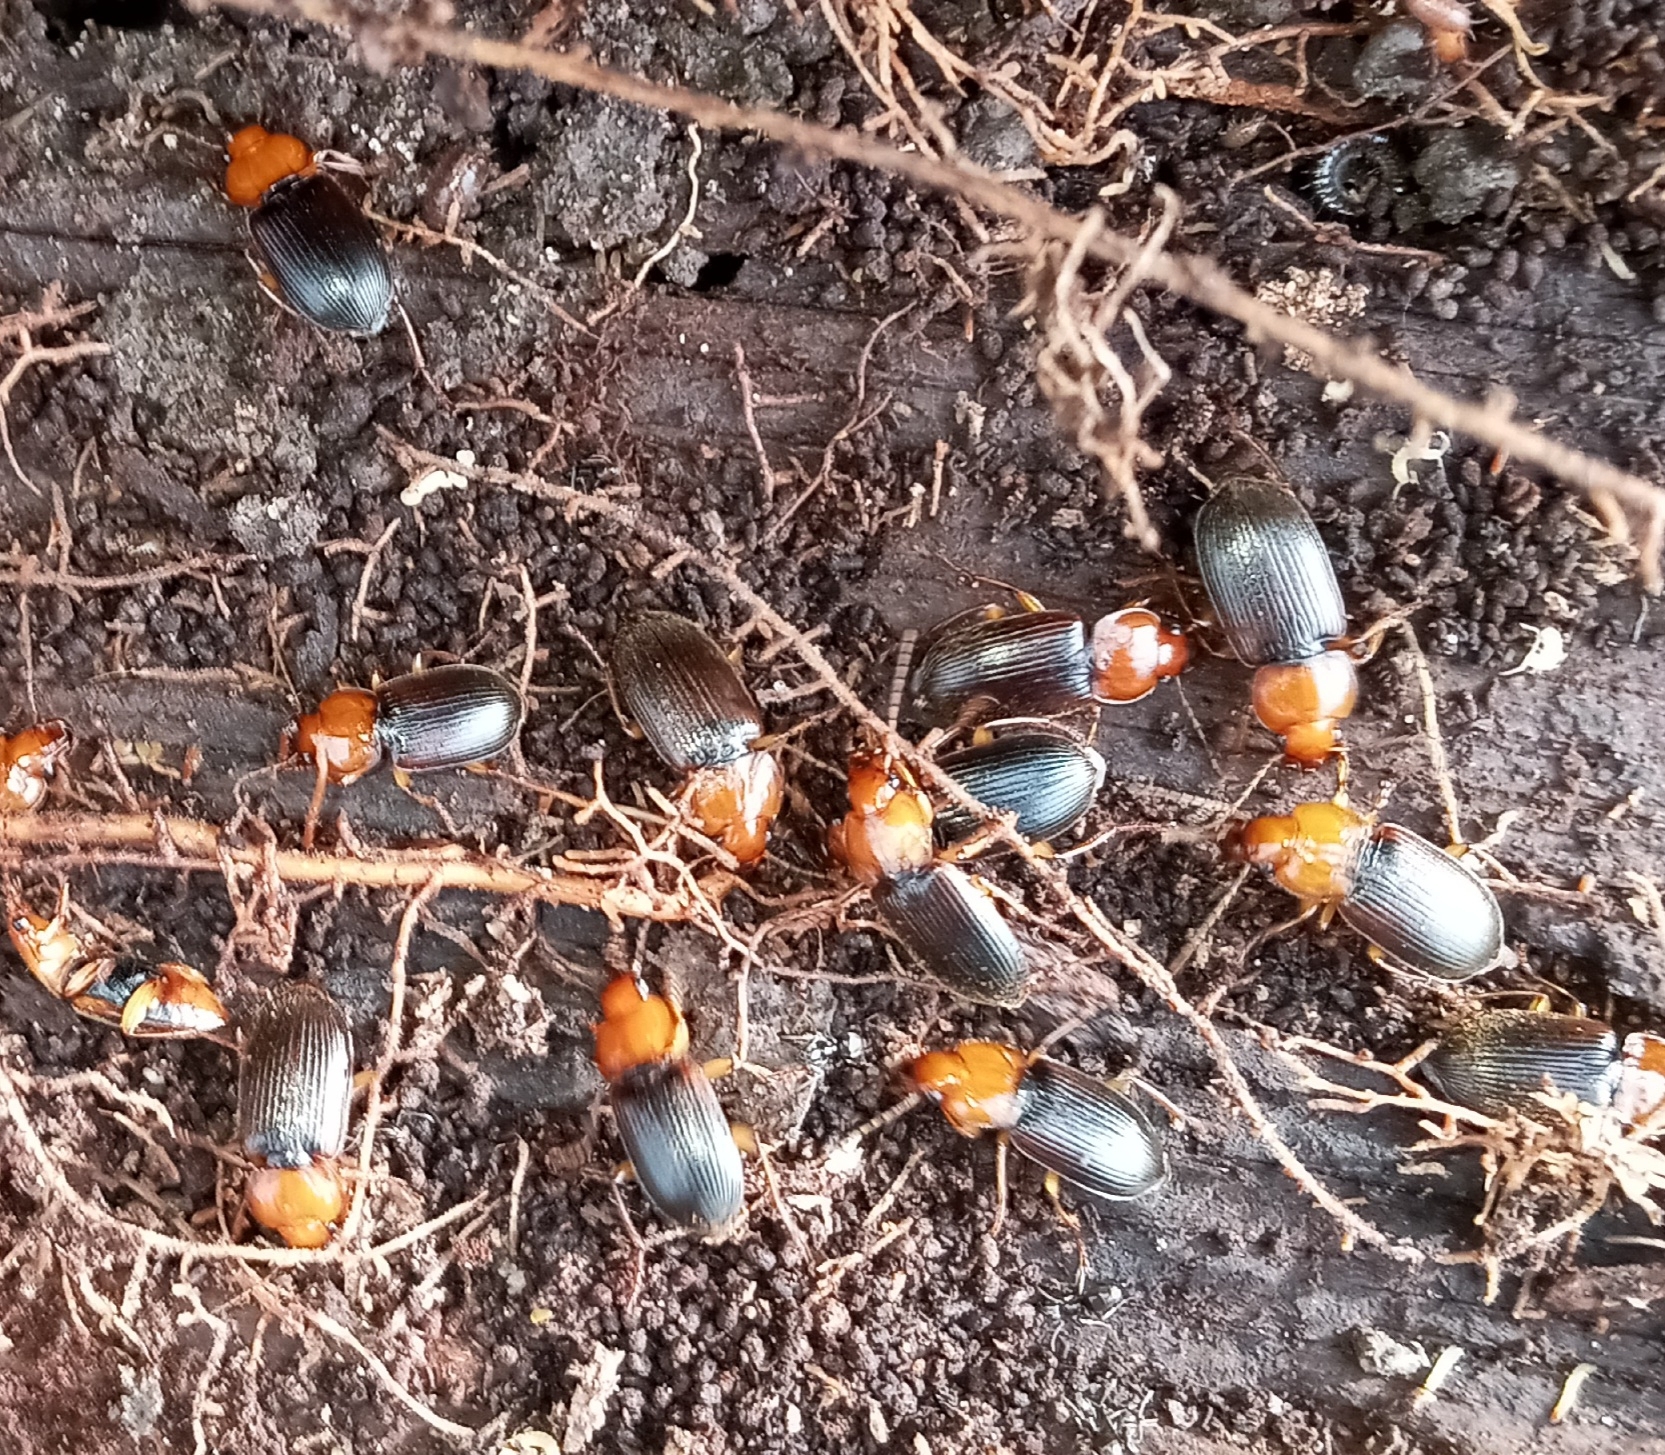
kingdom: Animalia
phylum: Arthropoda
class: Insecta
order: Coleoptera
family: Carabidae
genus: Amphasia
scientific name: Amphasia interstitialis
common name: Red-headed ground beetle
